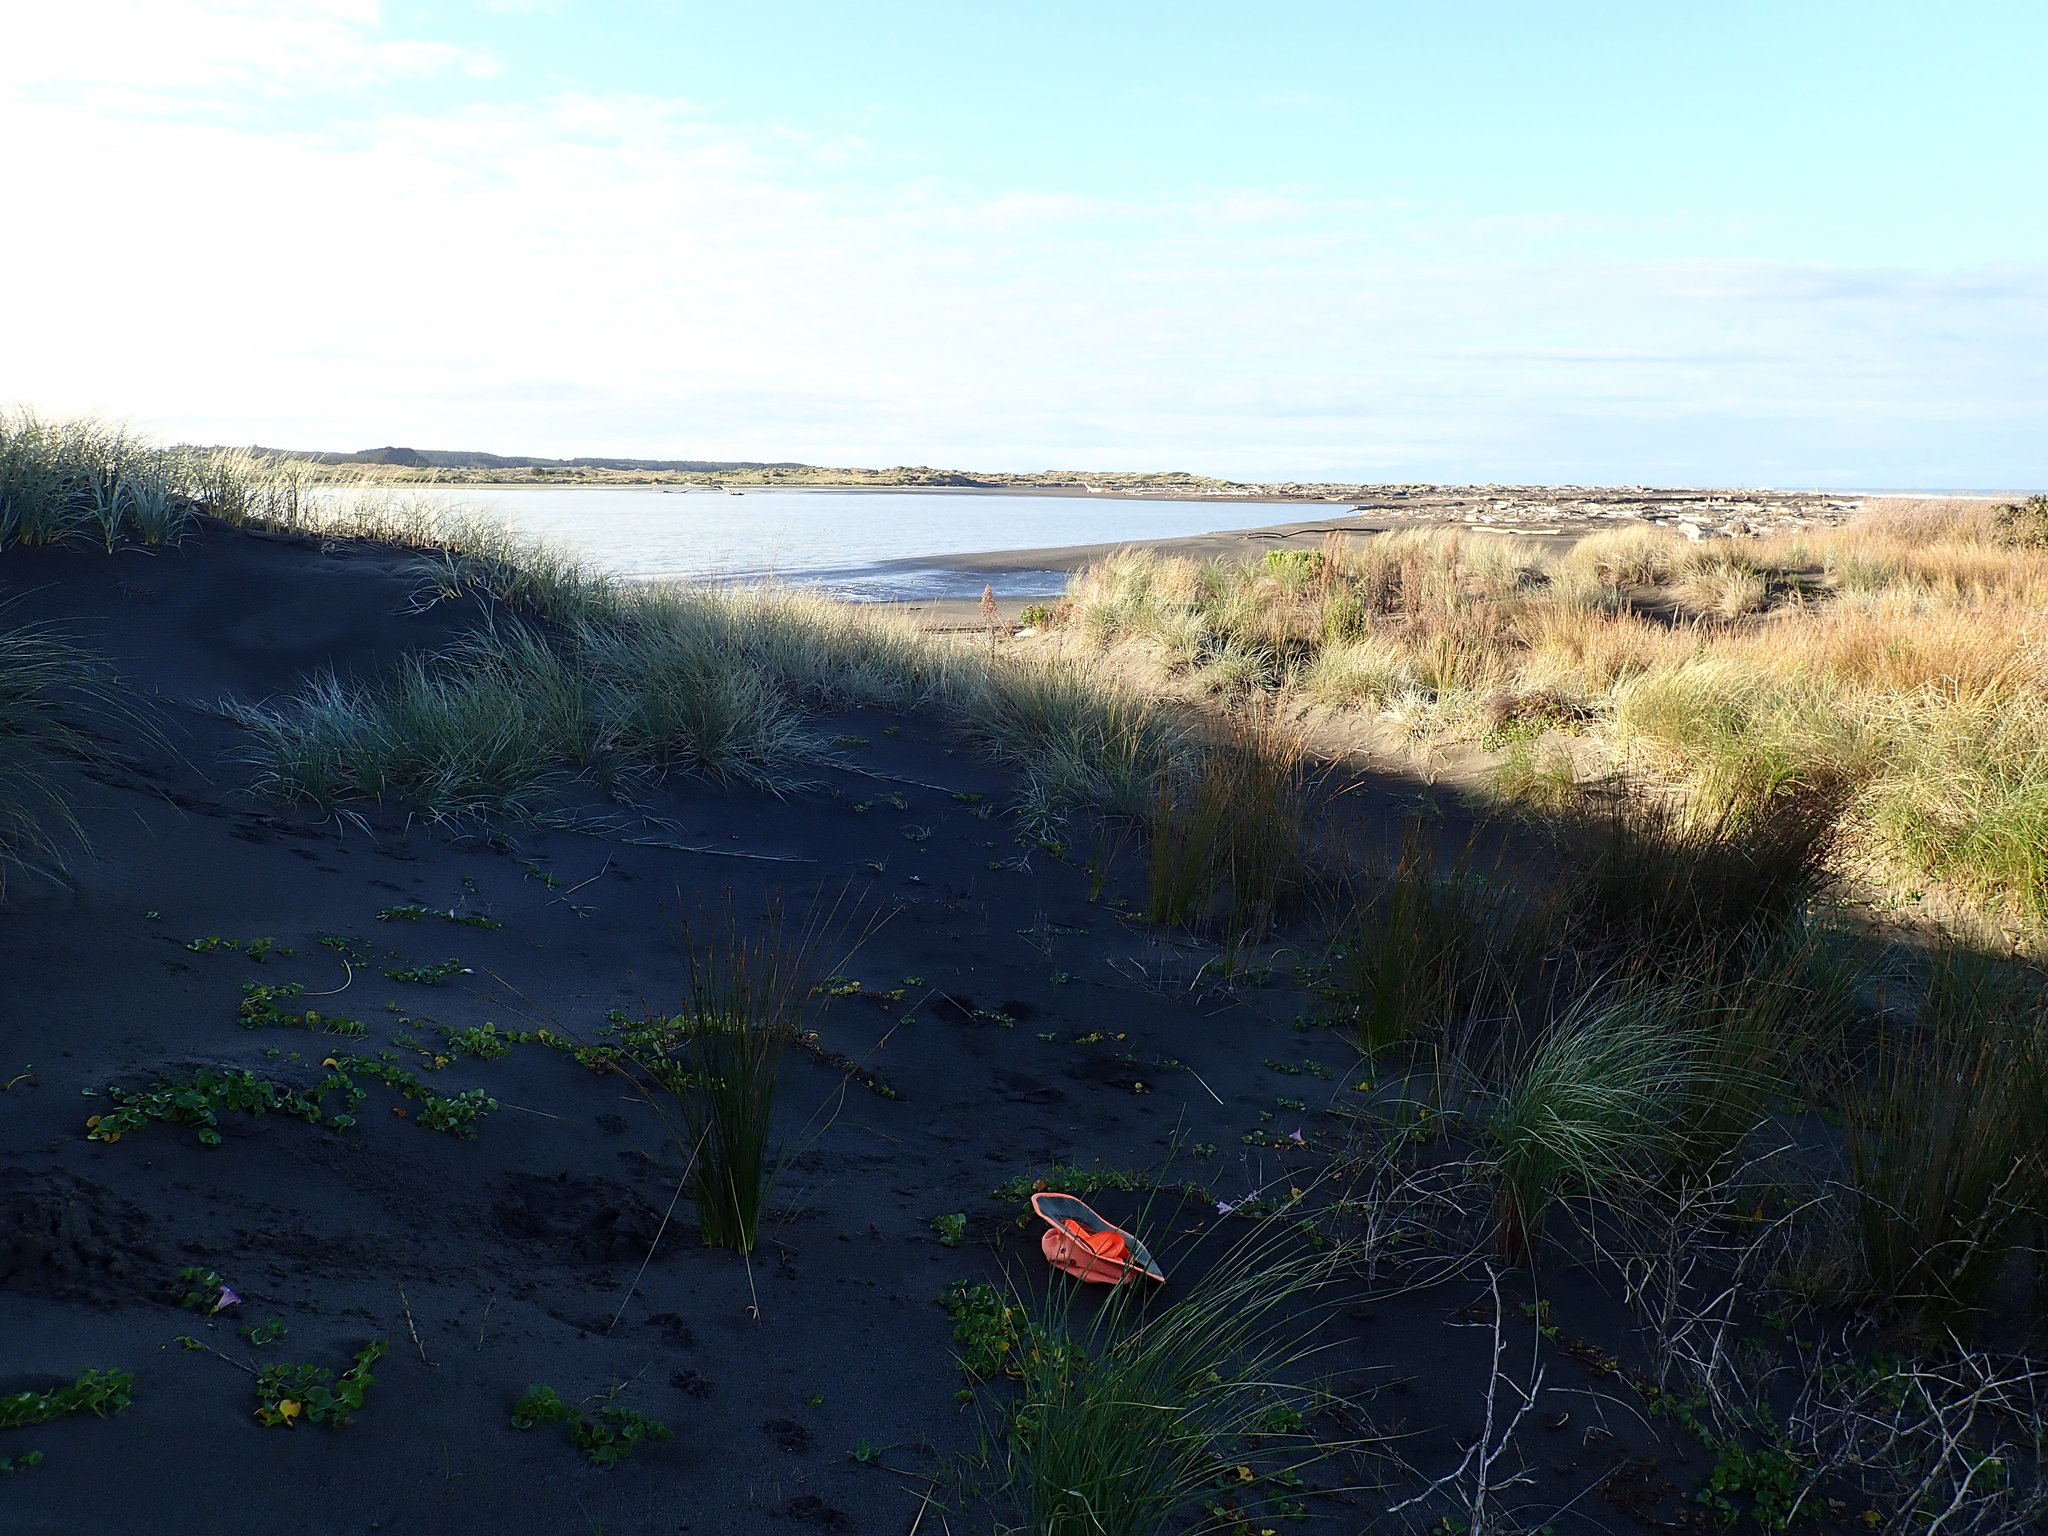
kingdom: Plantae
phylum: Tracheophyta
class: Magnoliopsida
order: Solanales
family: Convolvulaceae
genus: Calystegia
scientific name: Calystegia soldanella
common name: Sea bindweed
